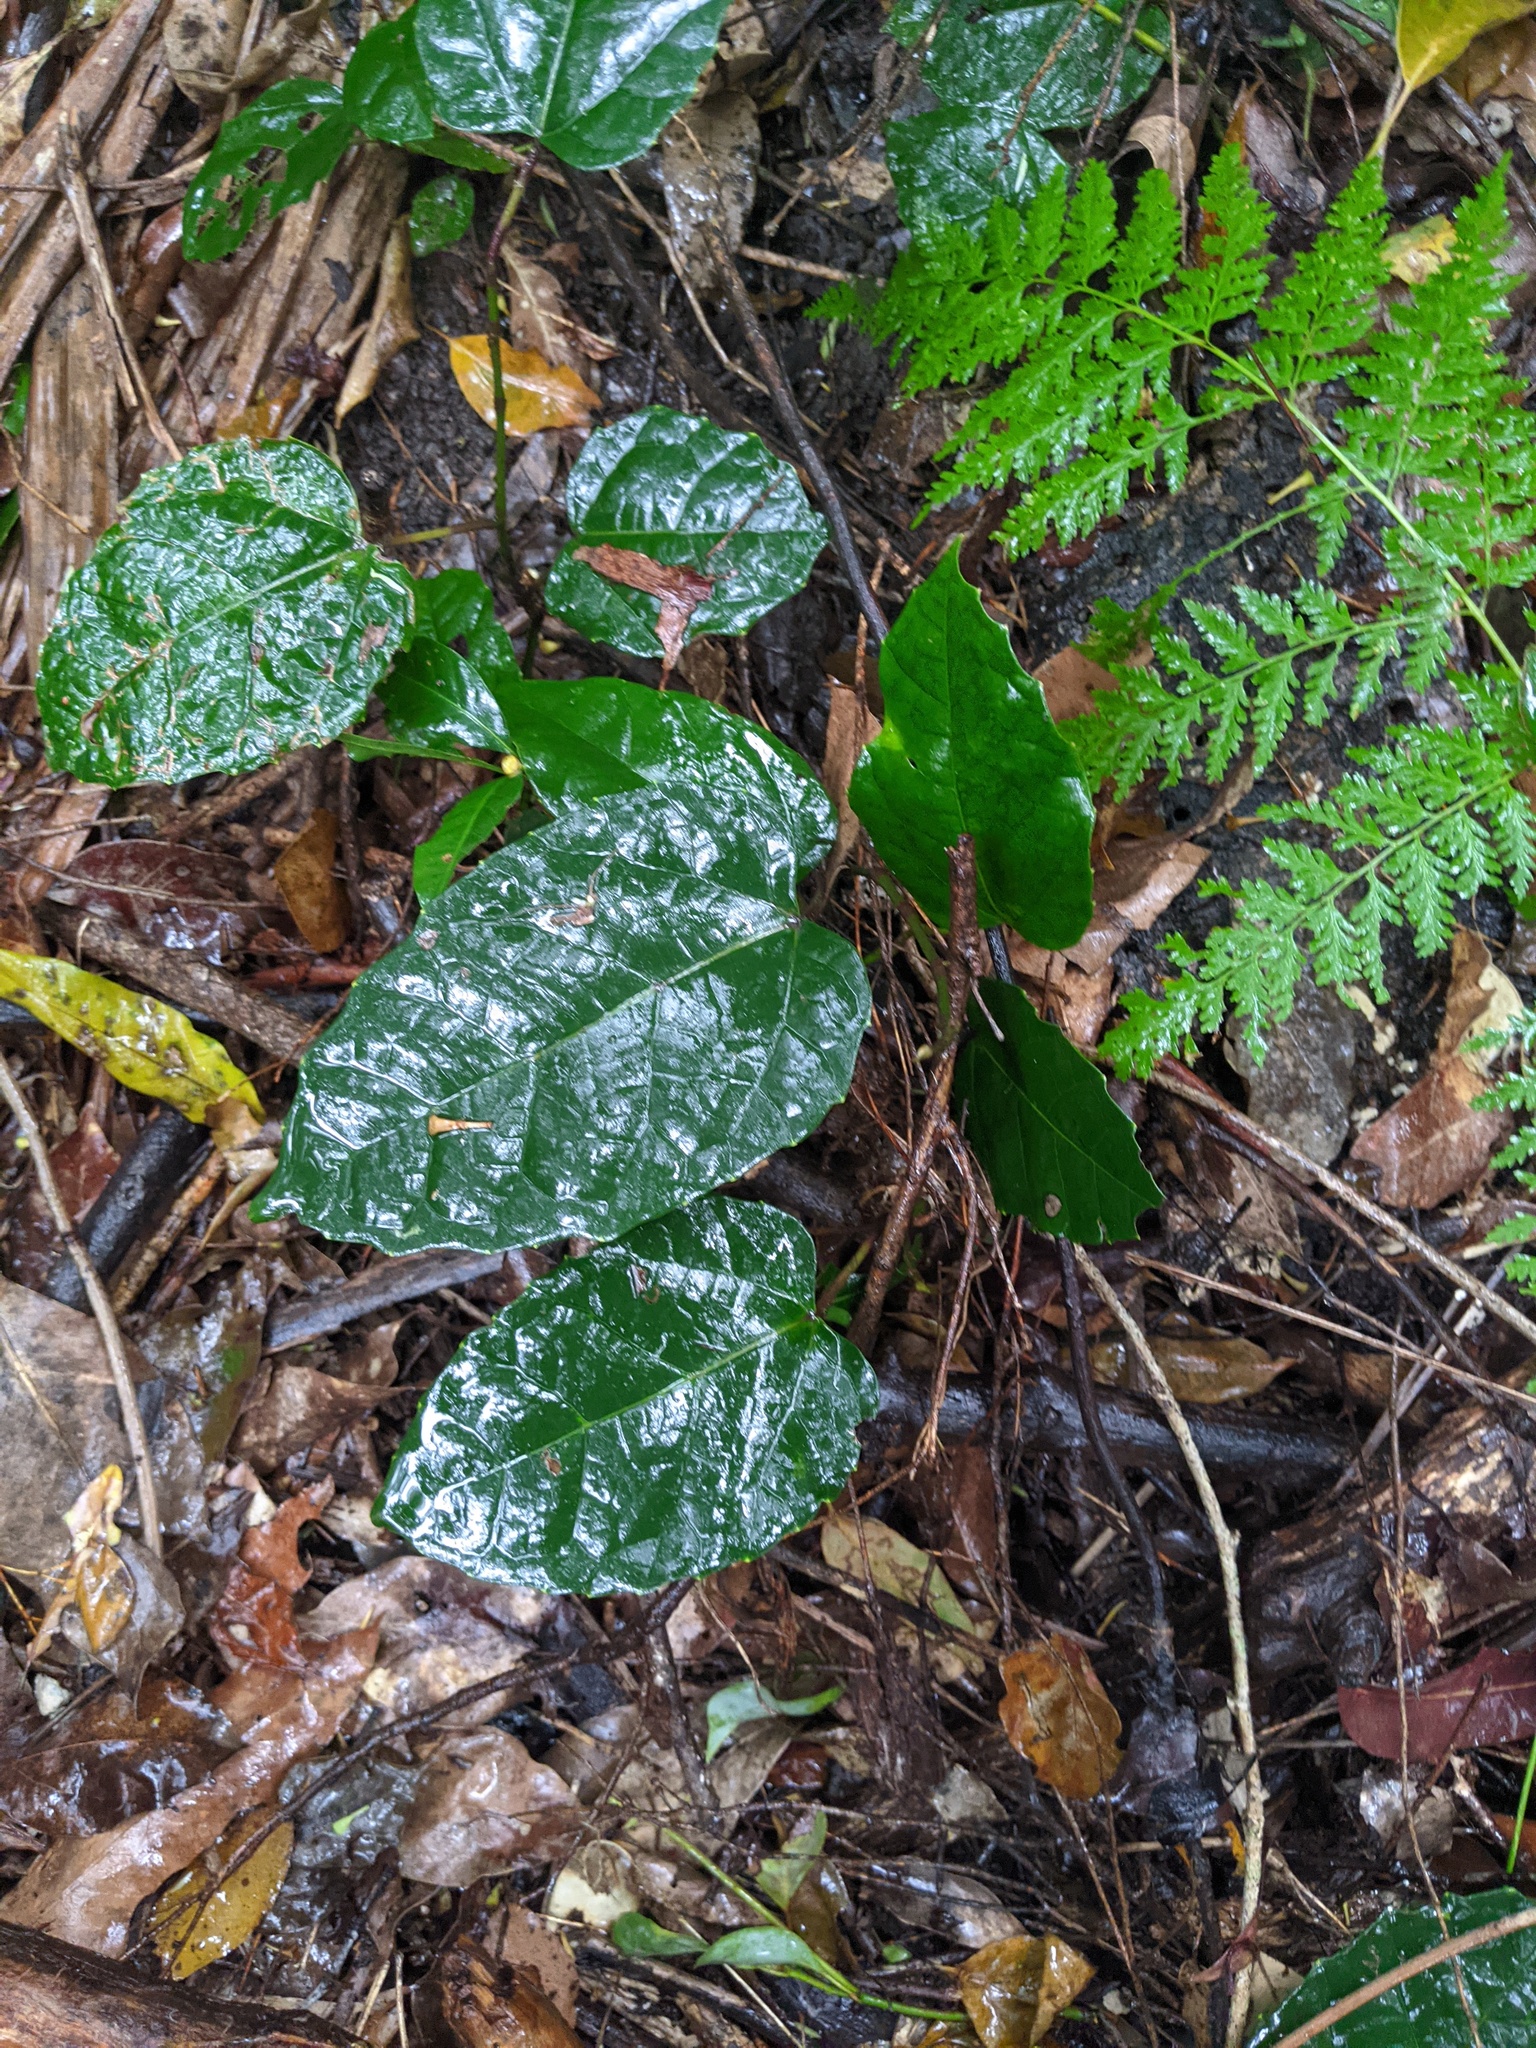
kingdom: Plantae
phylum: Tracheophyta
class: Magnoliopsida
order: Vitales
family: Vitaceae
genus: Cissus
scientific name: Cissus antarctica
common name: Kangaroo vine
